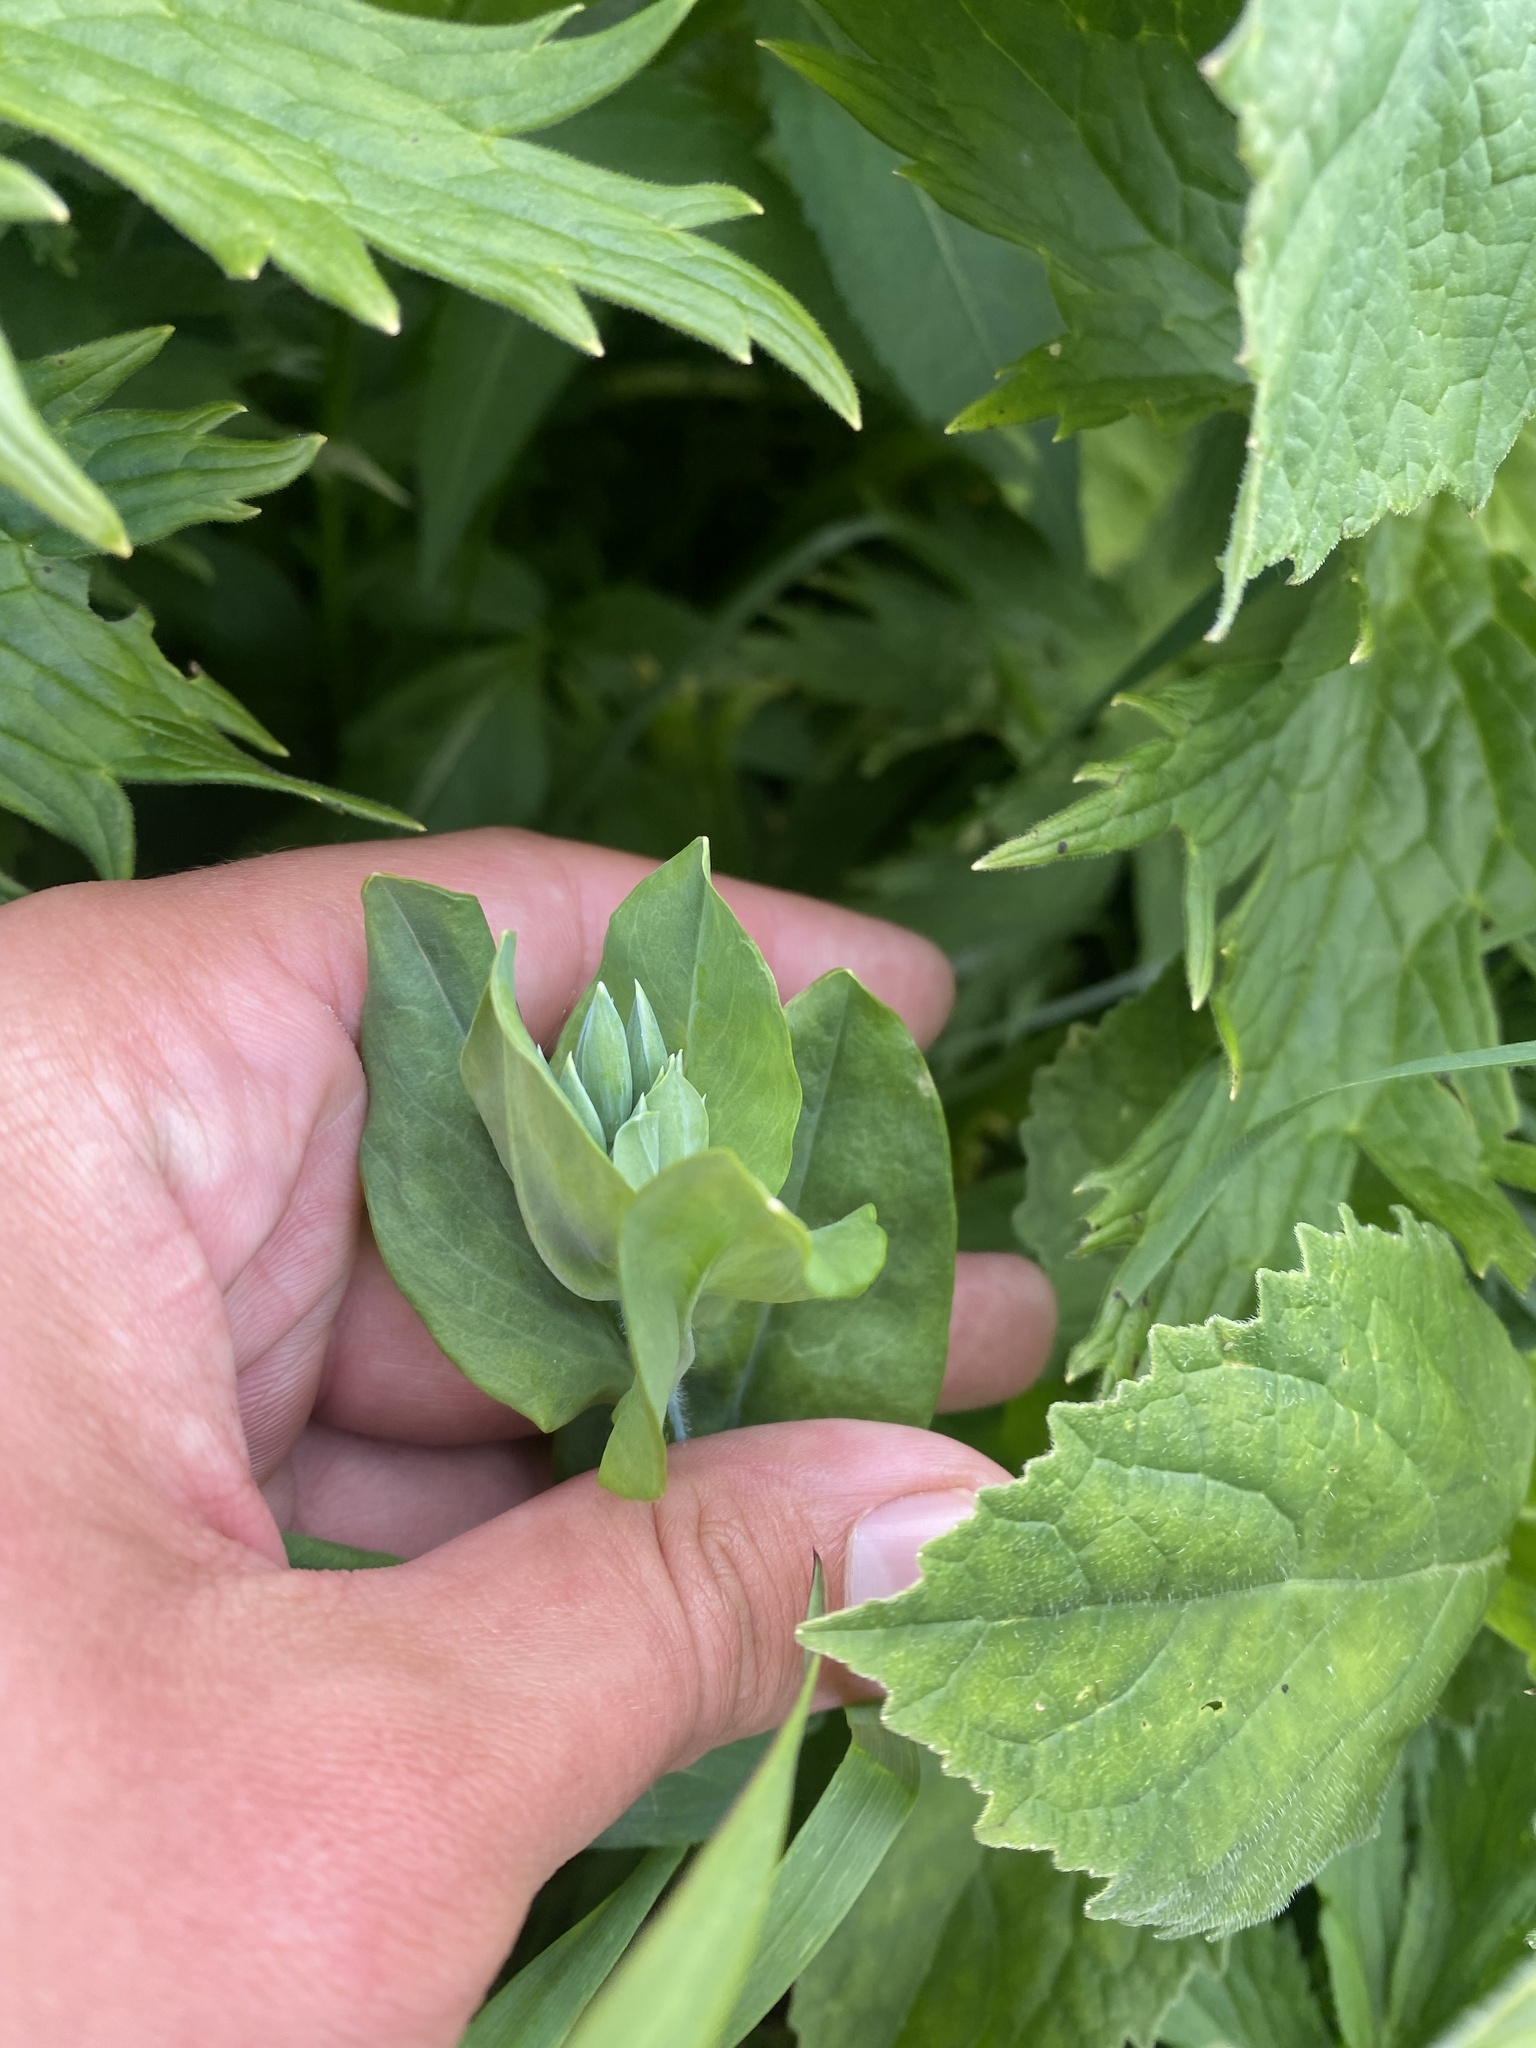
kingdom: Plantae
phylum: Tracheophyta
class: Magnoliopsida
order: Caryophyllales
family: Caryophyllaceae
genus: Cerastium
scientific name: Cerastium davuricum
